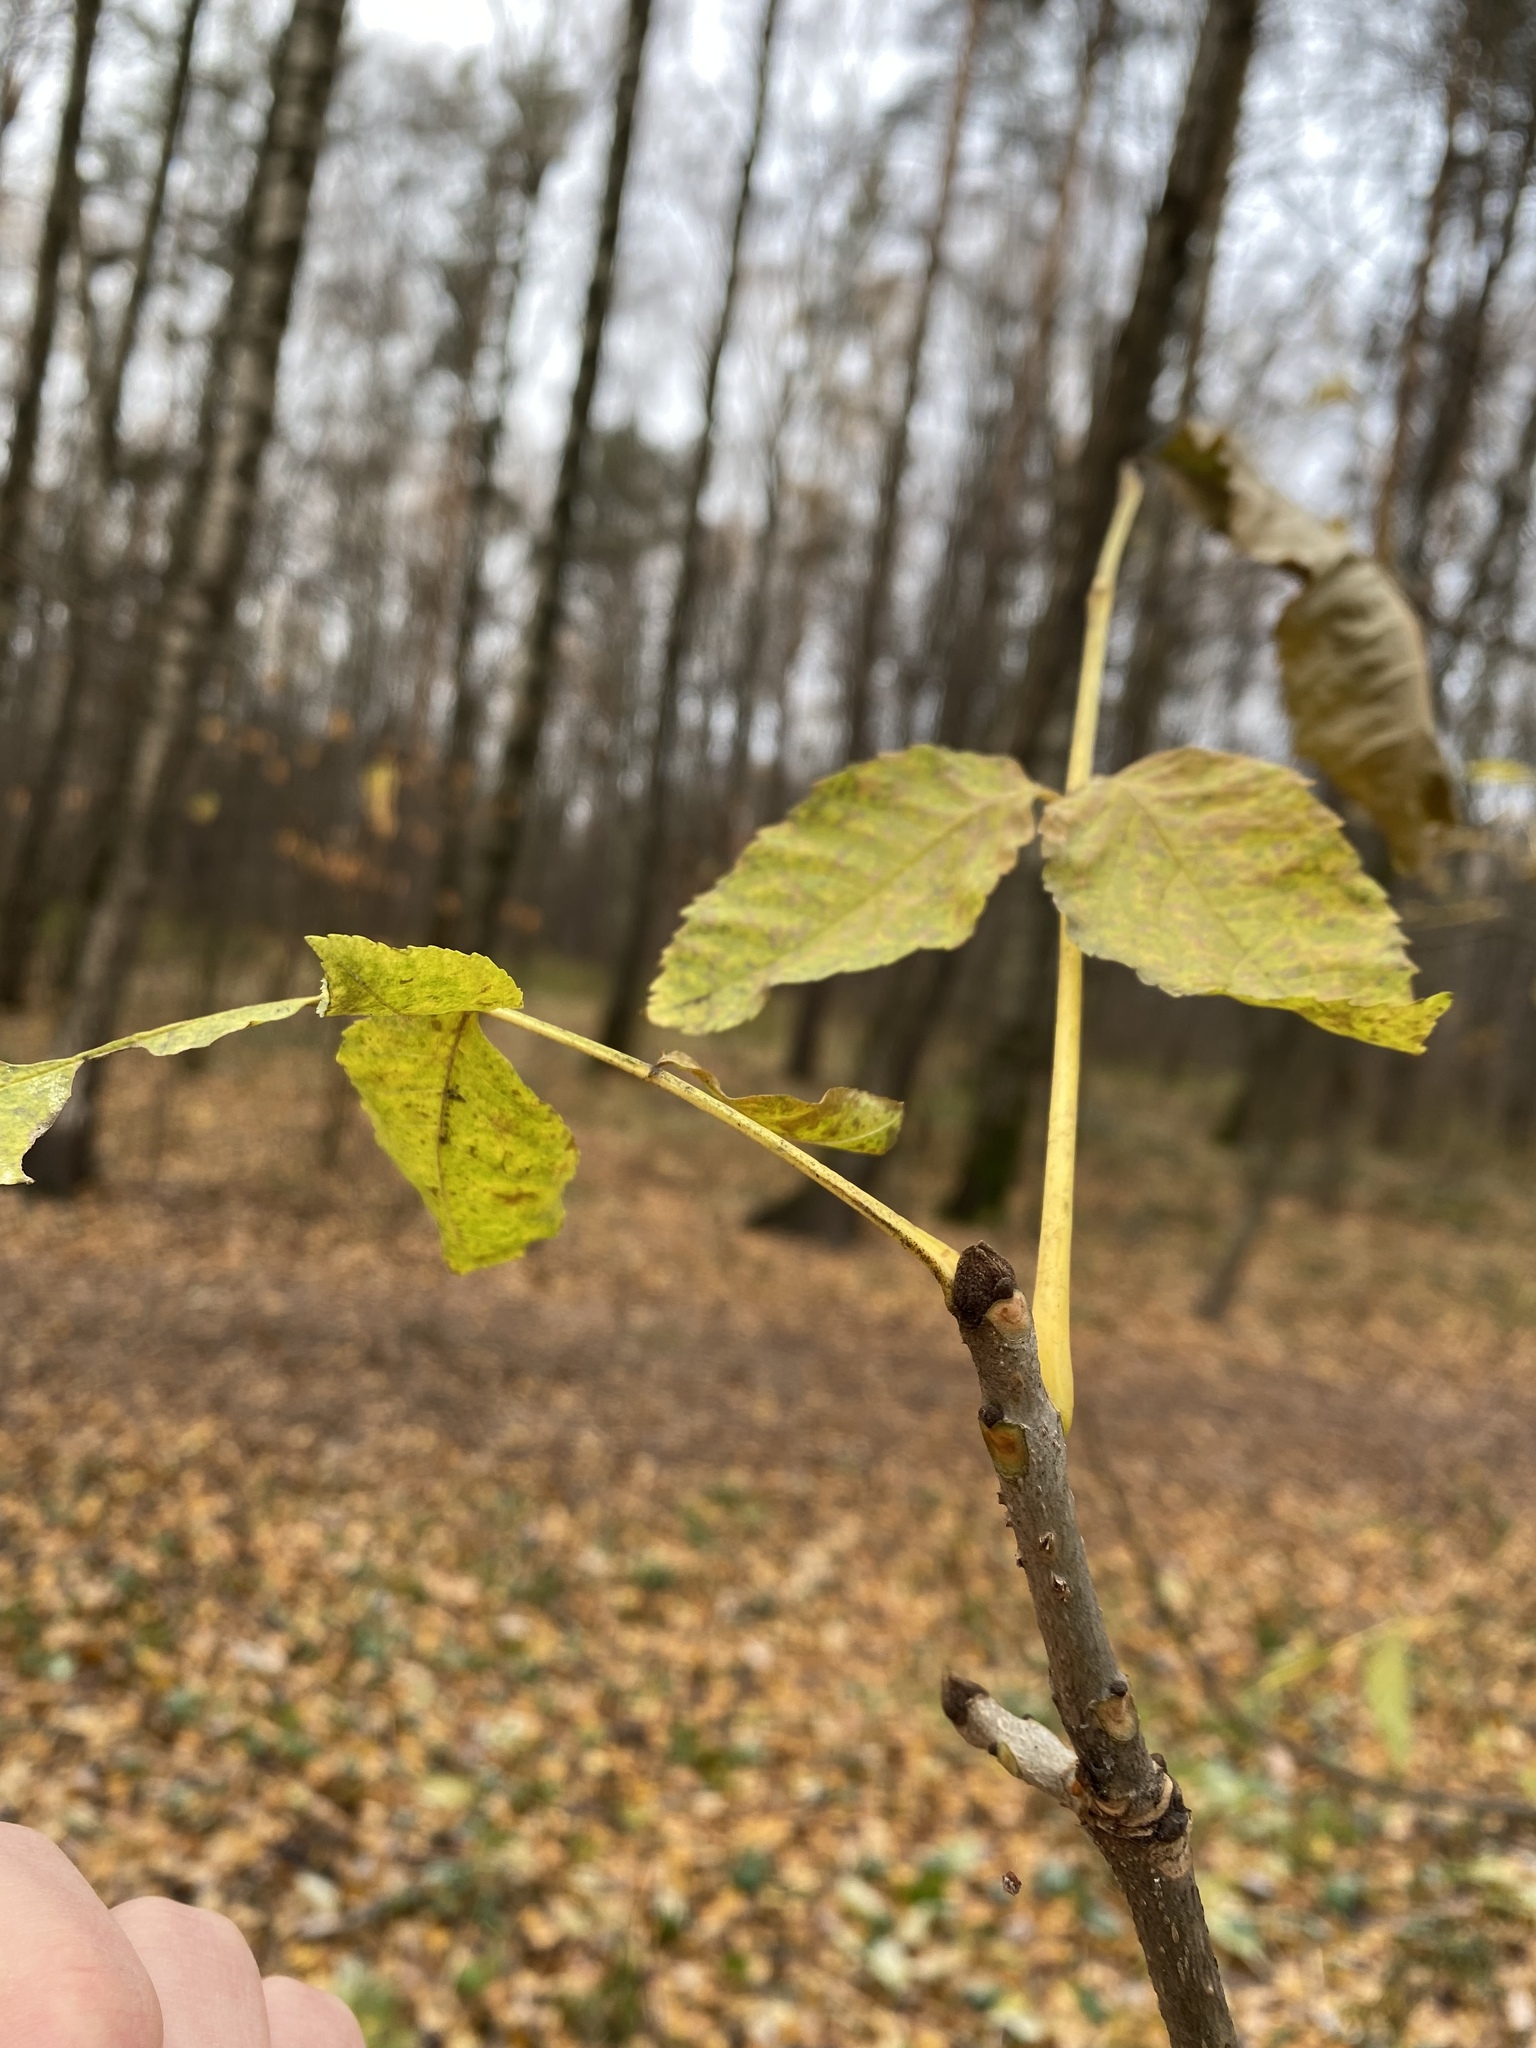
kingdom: Plantae
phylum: Tracheophyta
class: Magnoliopsida
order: Lamiales
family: Oleaceae
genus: Fraxinus
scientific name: Fraxinus pennsylvanica
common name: Green ash
